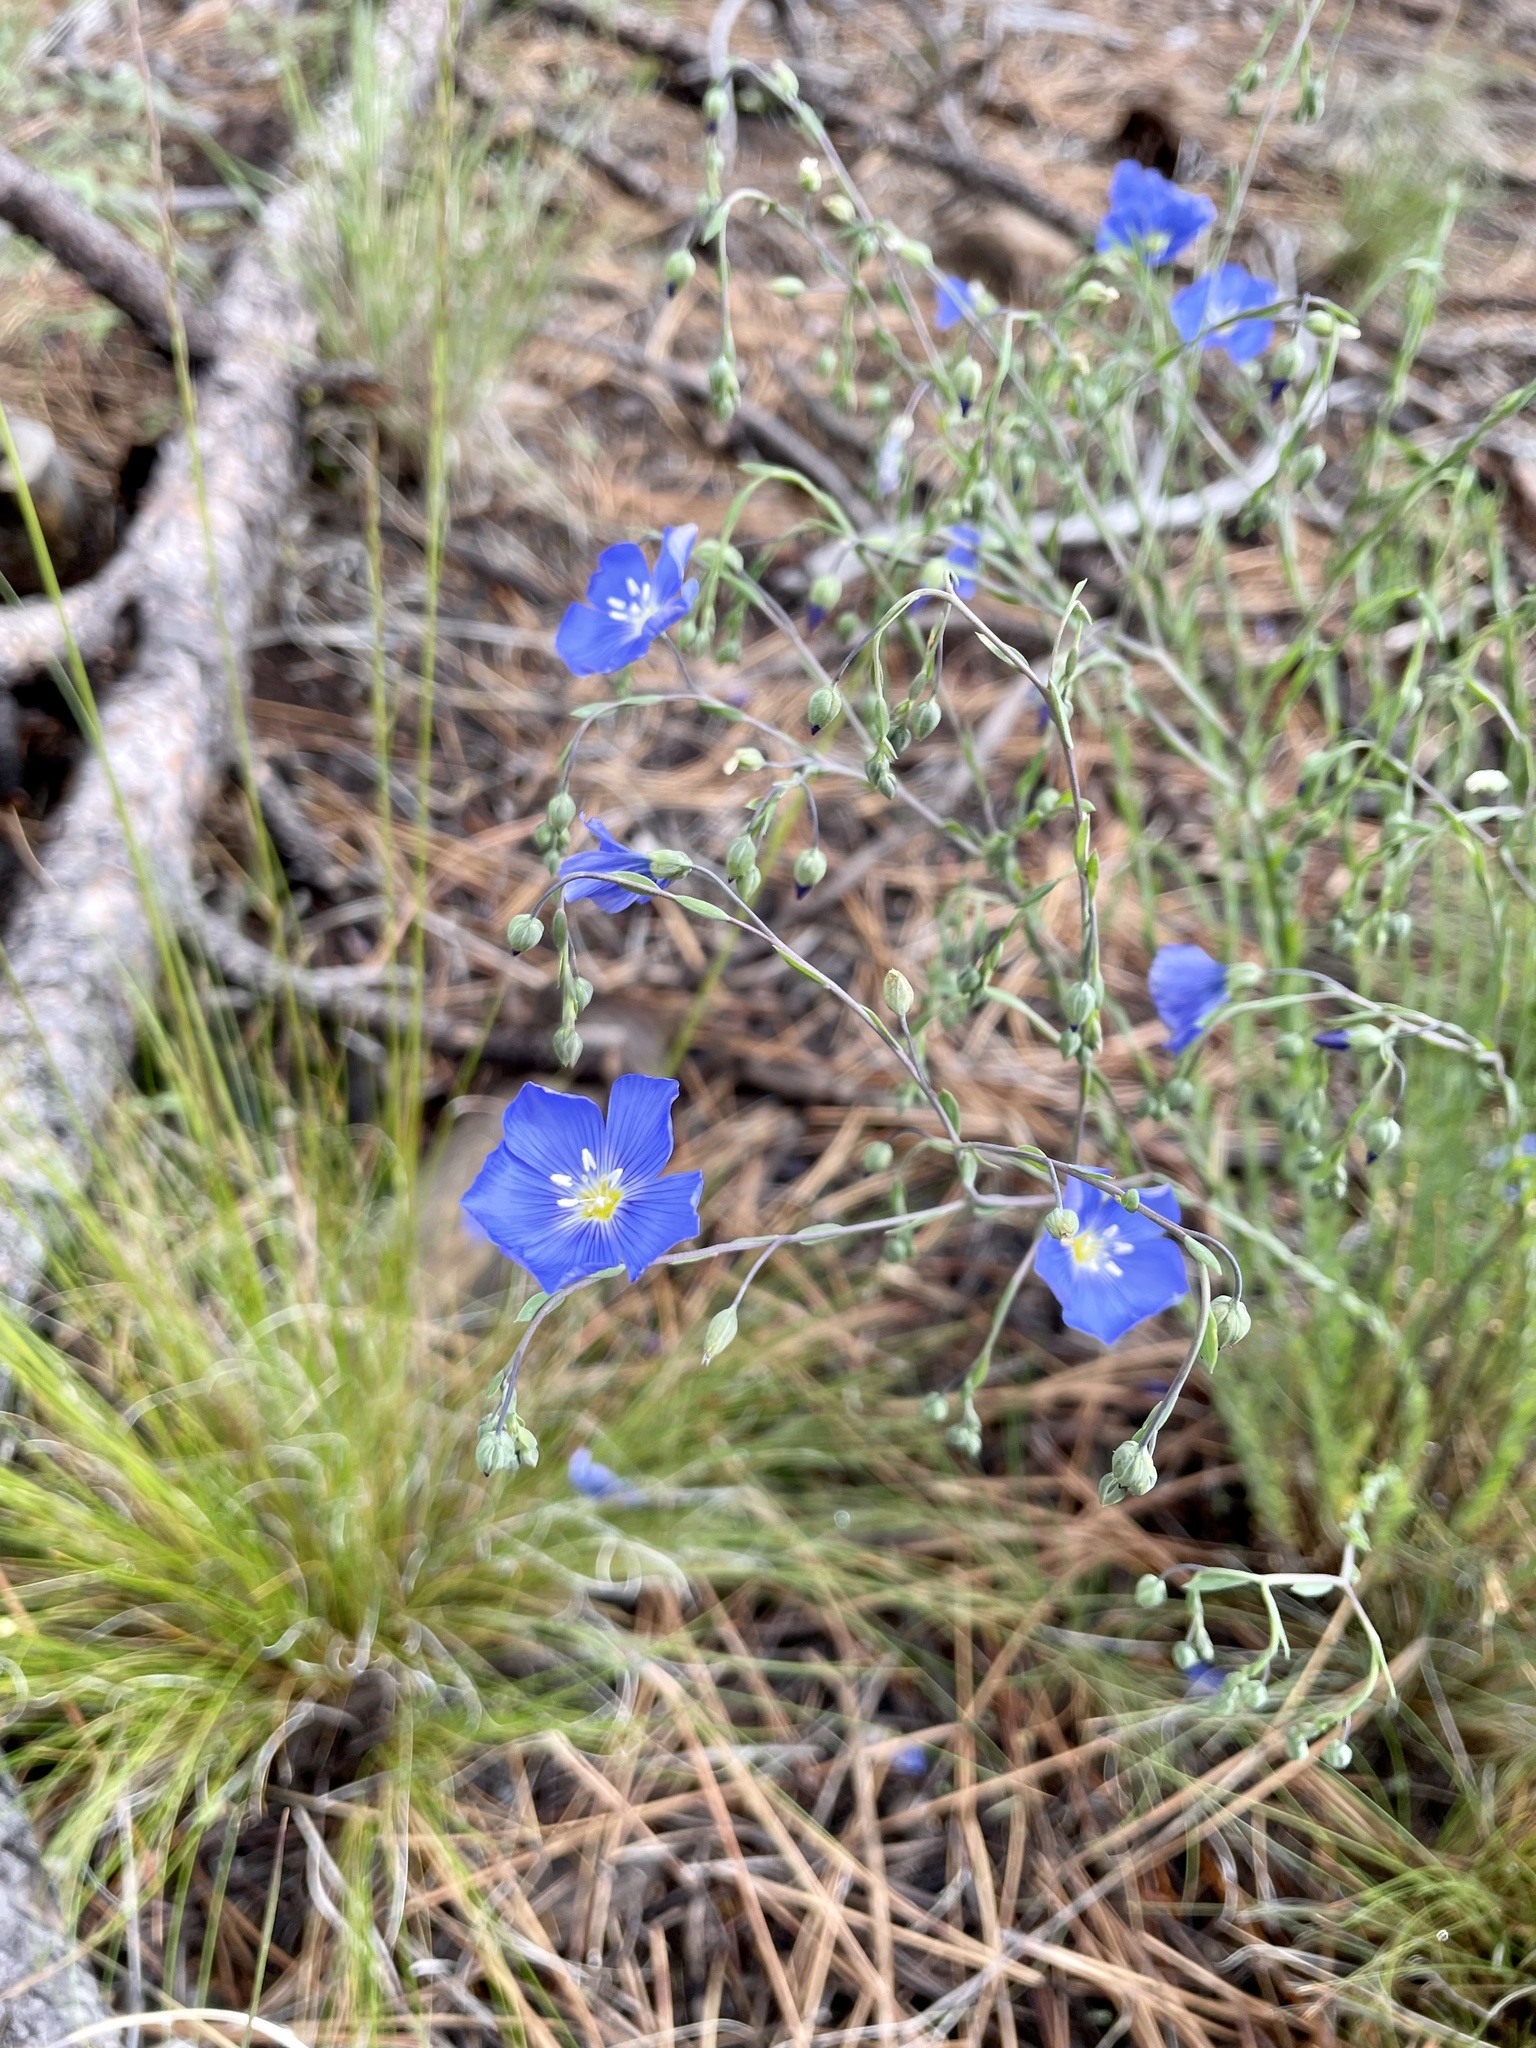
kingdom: Plantae
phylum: Tracheophyta
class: Magnoliopsida
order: Malpighiales
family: Linaceae
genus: Linum
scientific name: Linum lewisii
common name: Prairie flax
